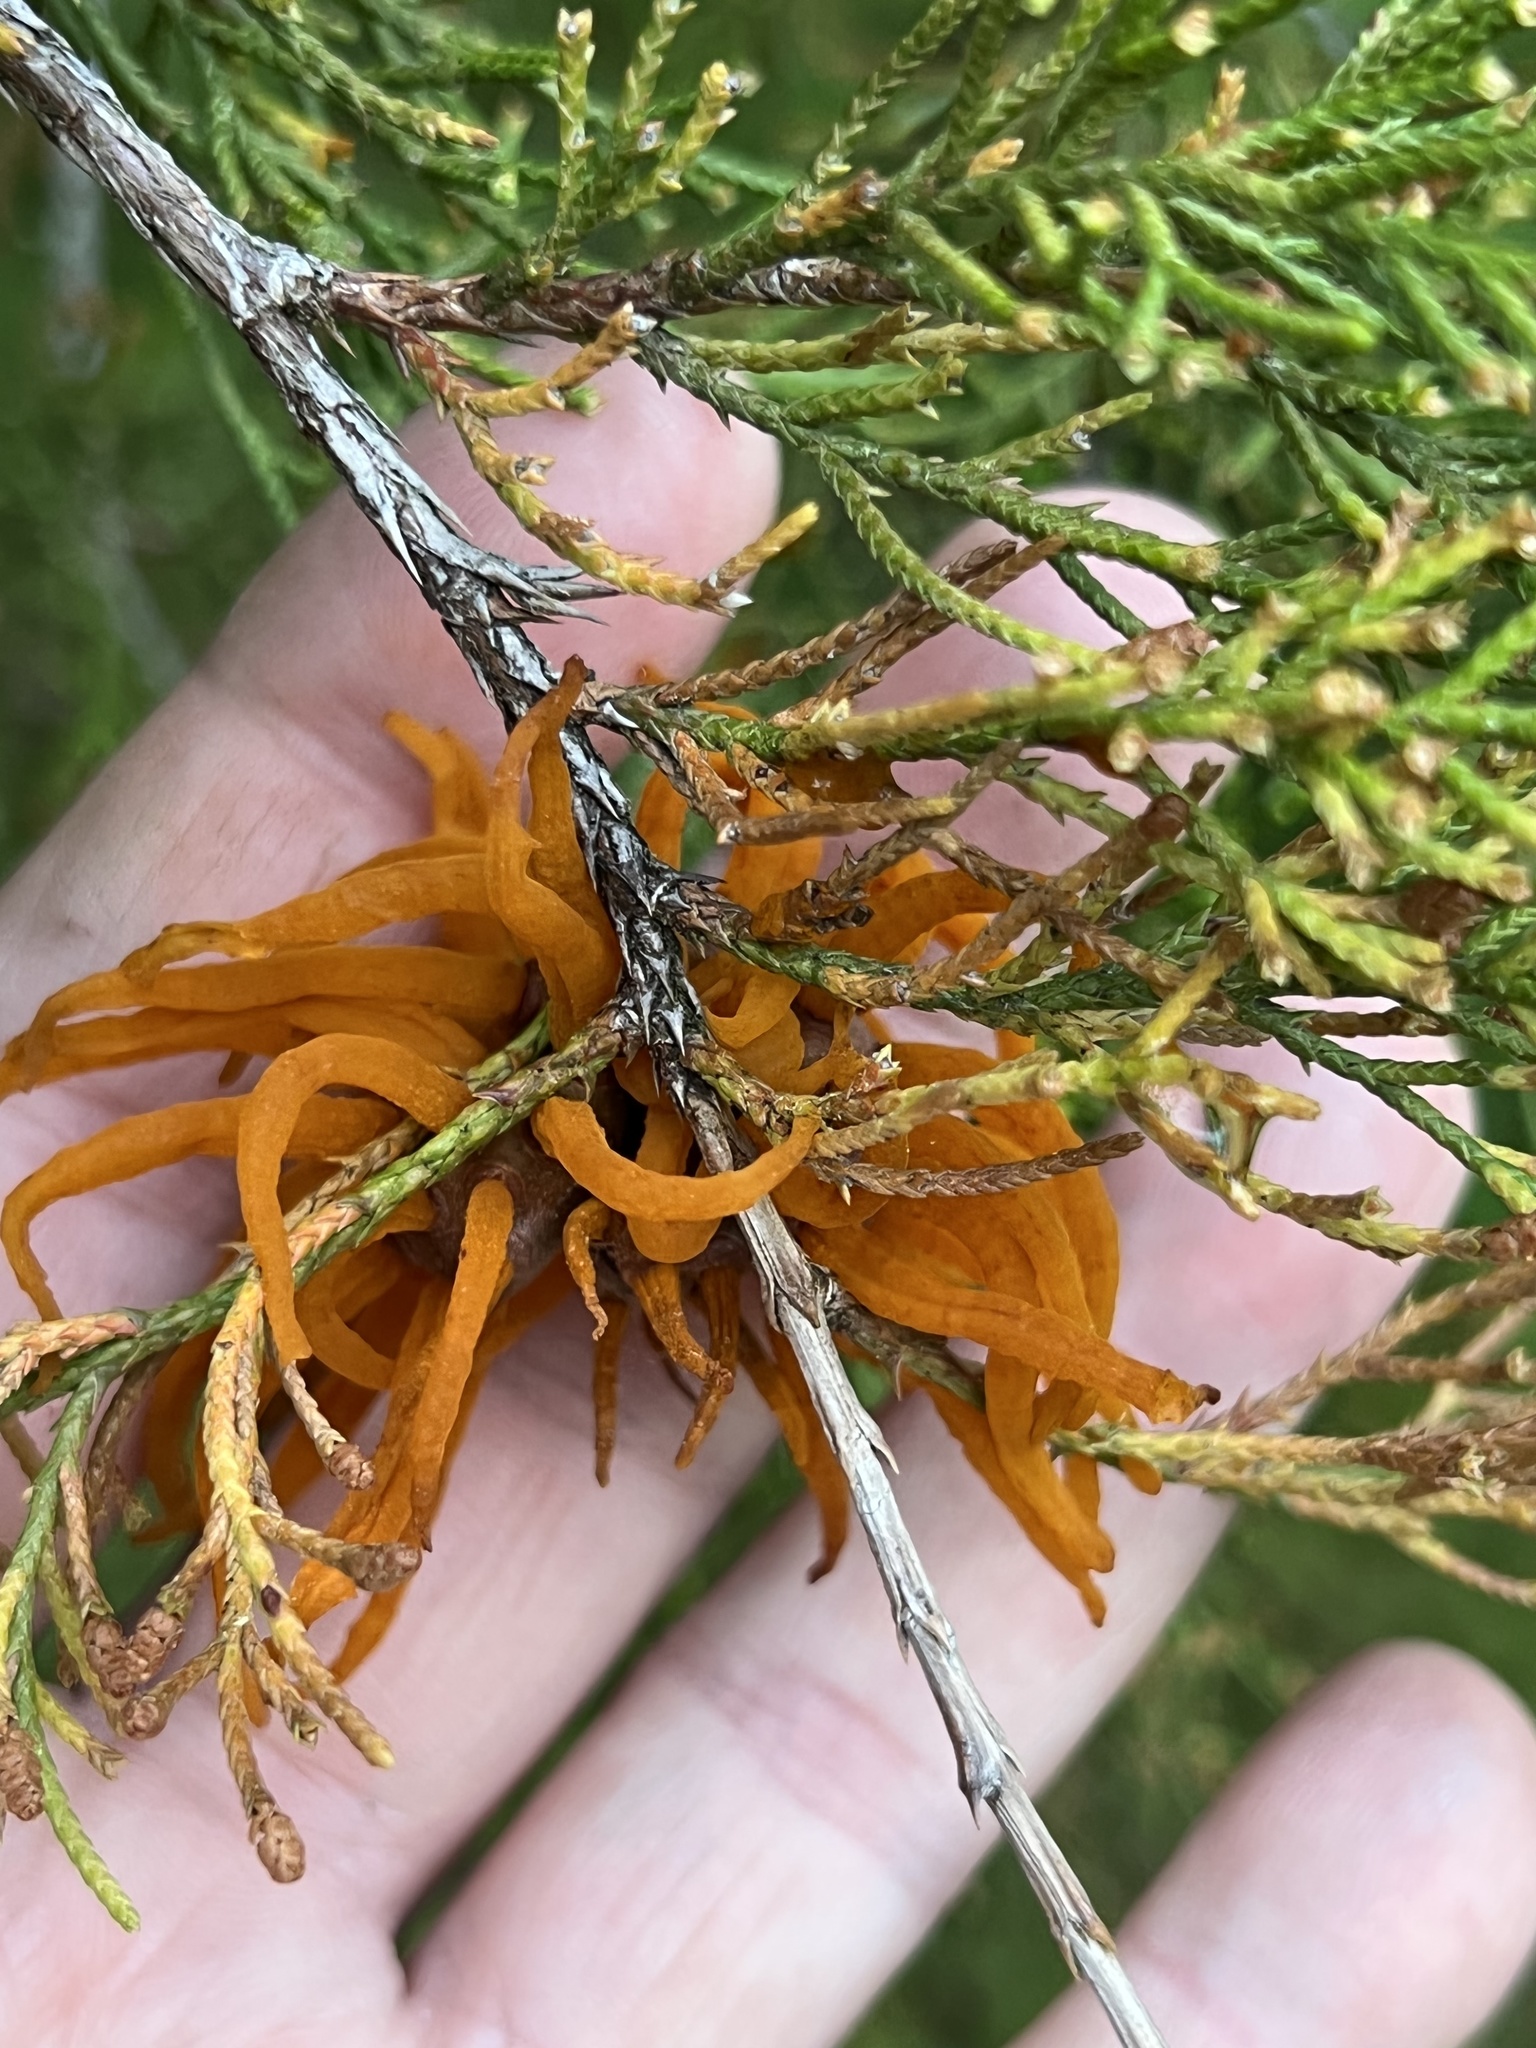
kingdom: Fungi
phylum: Basidiomycota
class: Pucciniomycetes
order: Pucciniales
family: Gymnosporangiaceae
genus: Gymnosporangium
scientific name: Gymnosporangium juniperi-virginianae
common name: Juniper-apple rust
